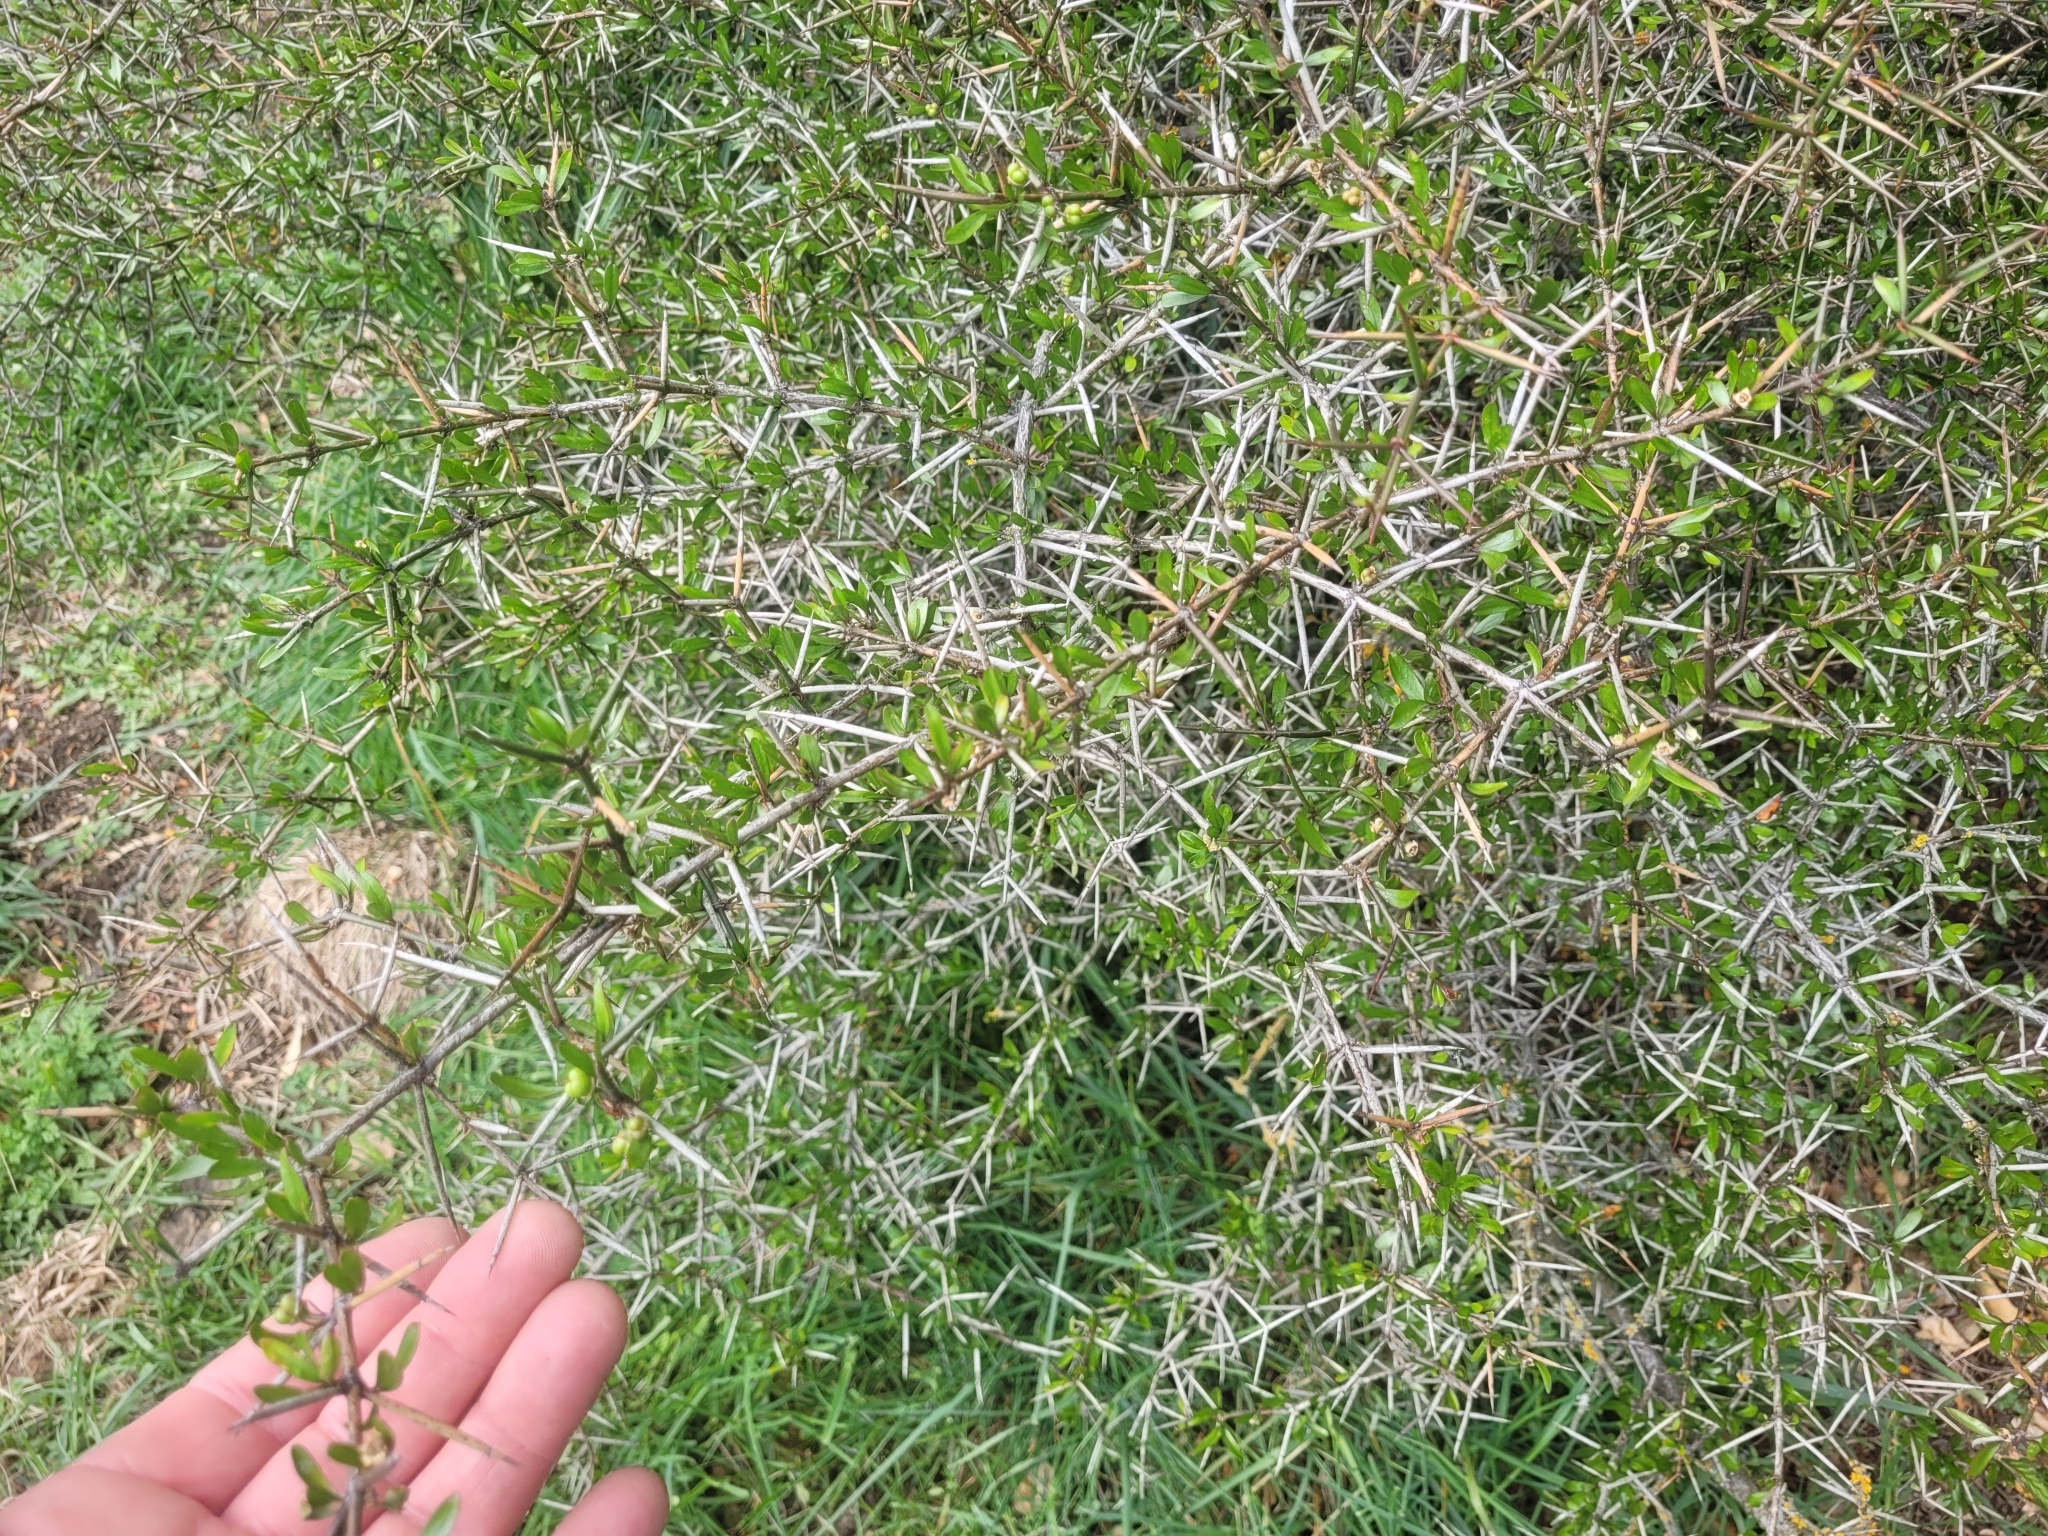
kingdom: Plantae
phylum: Tracheophyta
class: Magnoliopsida
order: Rosales
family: Rhamnaceae
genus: Discaria
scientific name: Discaria toumatou
